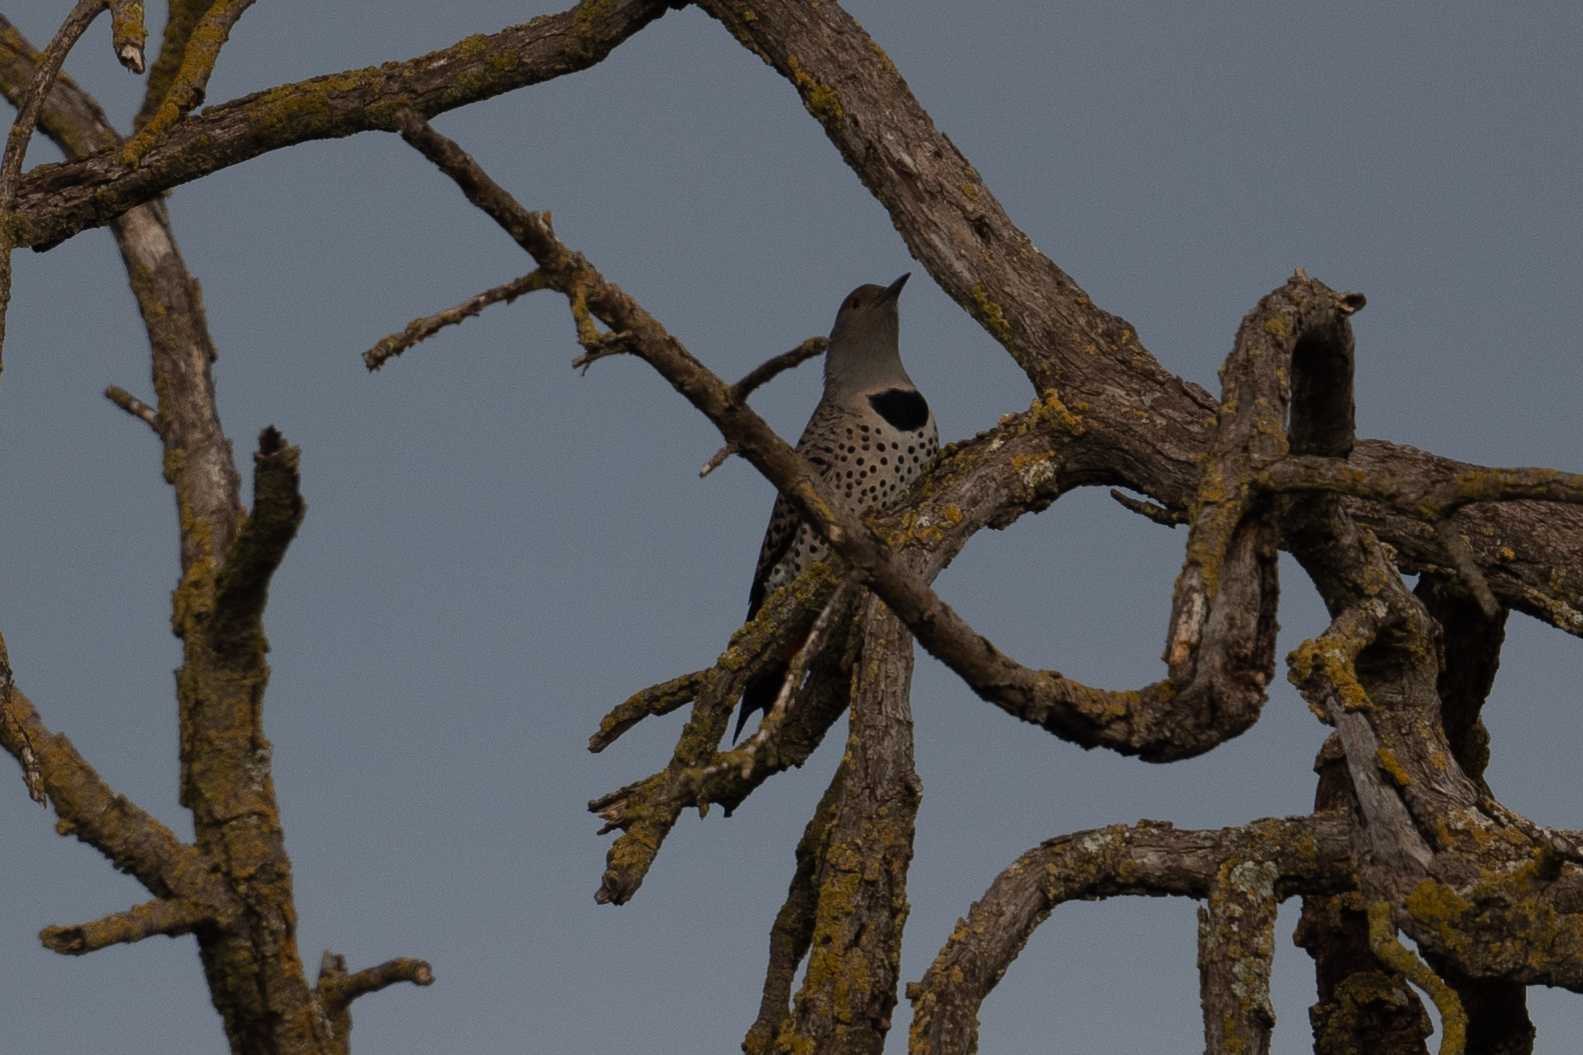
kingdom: Animalia
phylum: Chordata
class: Aves
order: Piciformes
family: Picidae
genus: Colaptes
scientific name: Colaptes auratus
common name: Northern flicker
